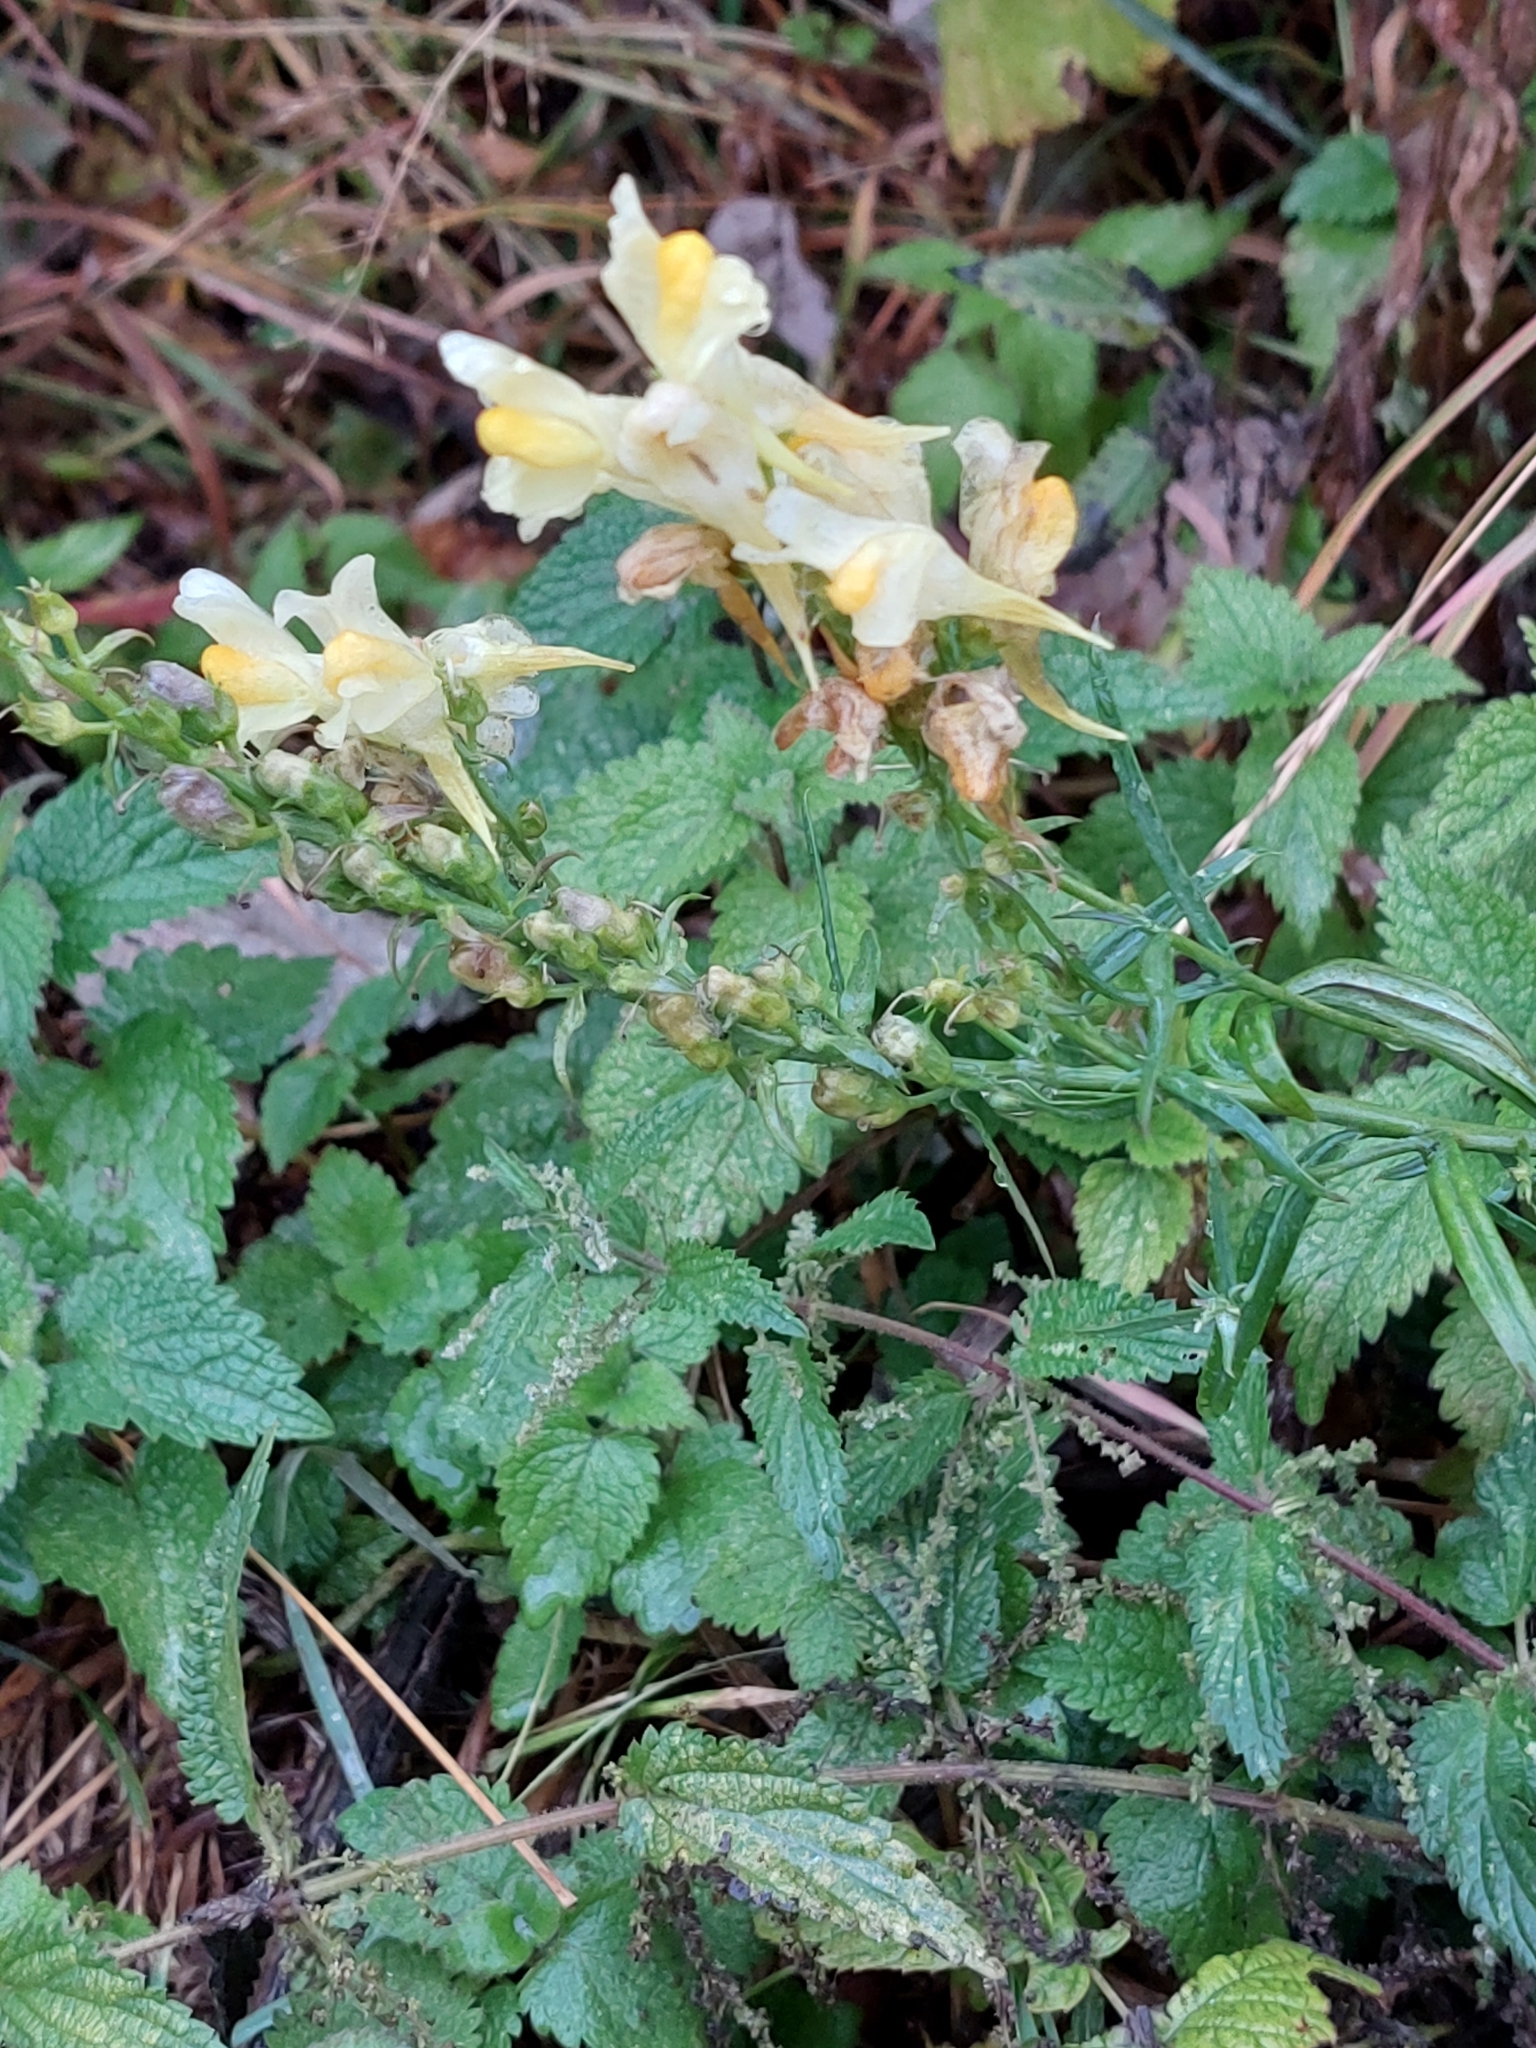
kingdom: Plantae
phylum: Tracheophyta
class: Magnoliopsida
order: Lamiales
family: Plantaginaceae
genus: Linaria
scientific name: Linaria vulgaris
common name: Butter and eggs
